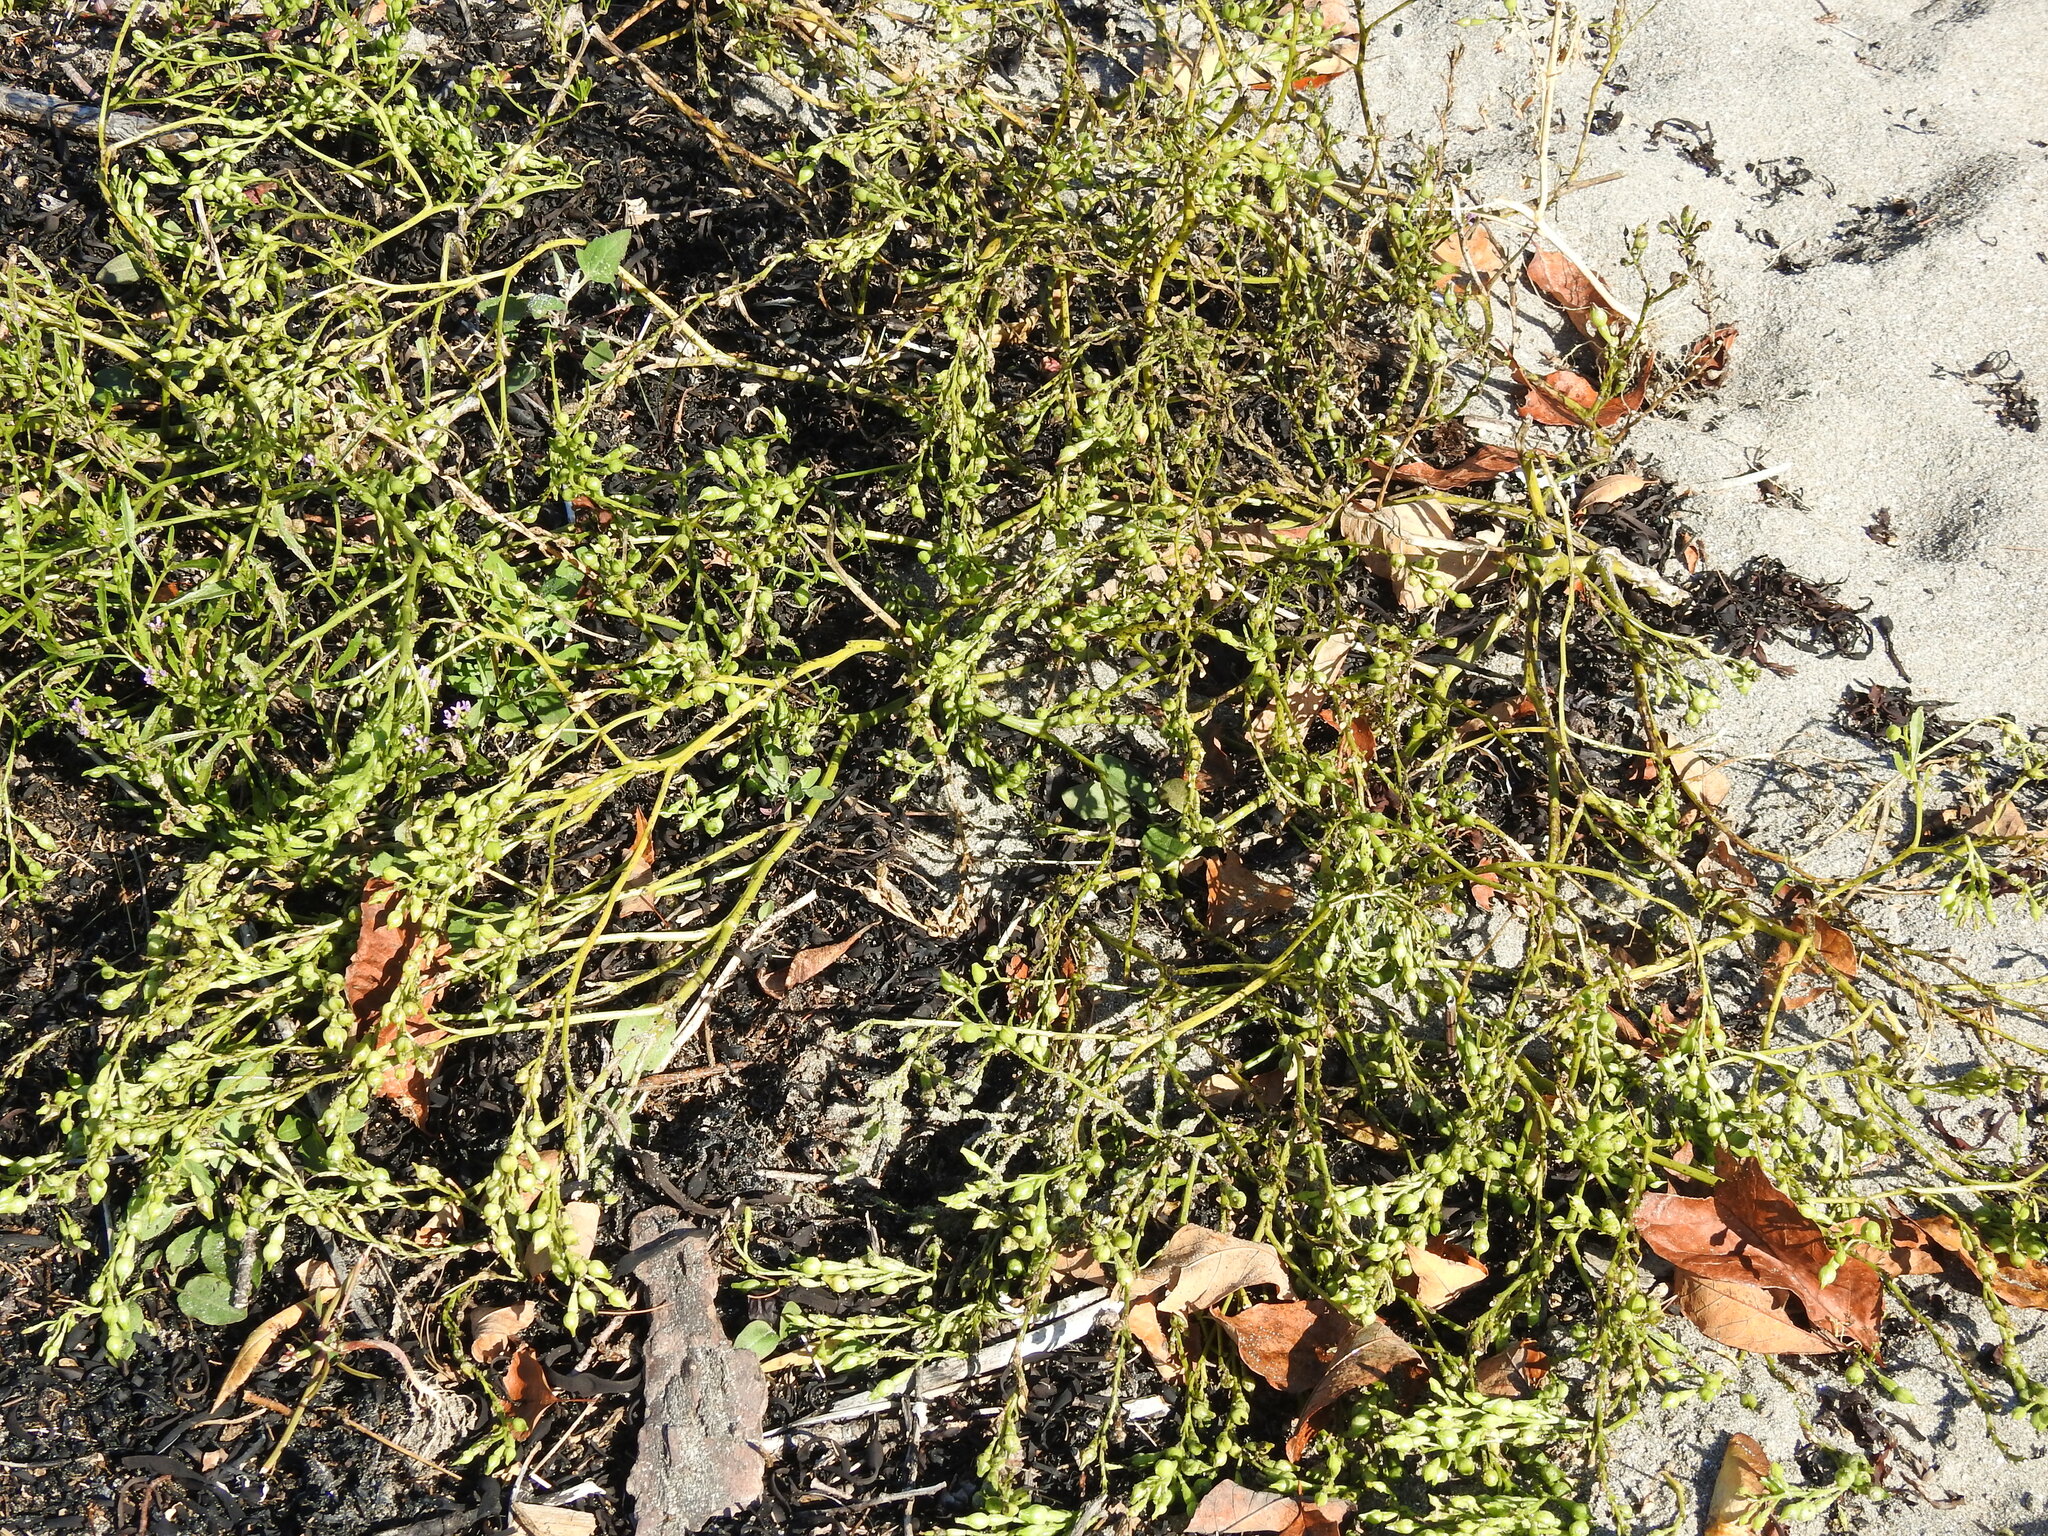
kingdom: Plantae
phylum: Tracheophyta
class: Magnoliopsida
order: Brassicales
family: Brassicaceae
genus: Cakile
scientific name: Cakile edentula
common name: American sea rocket
